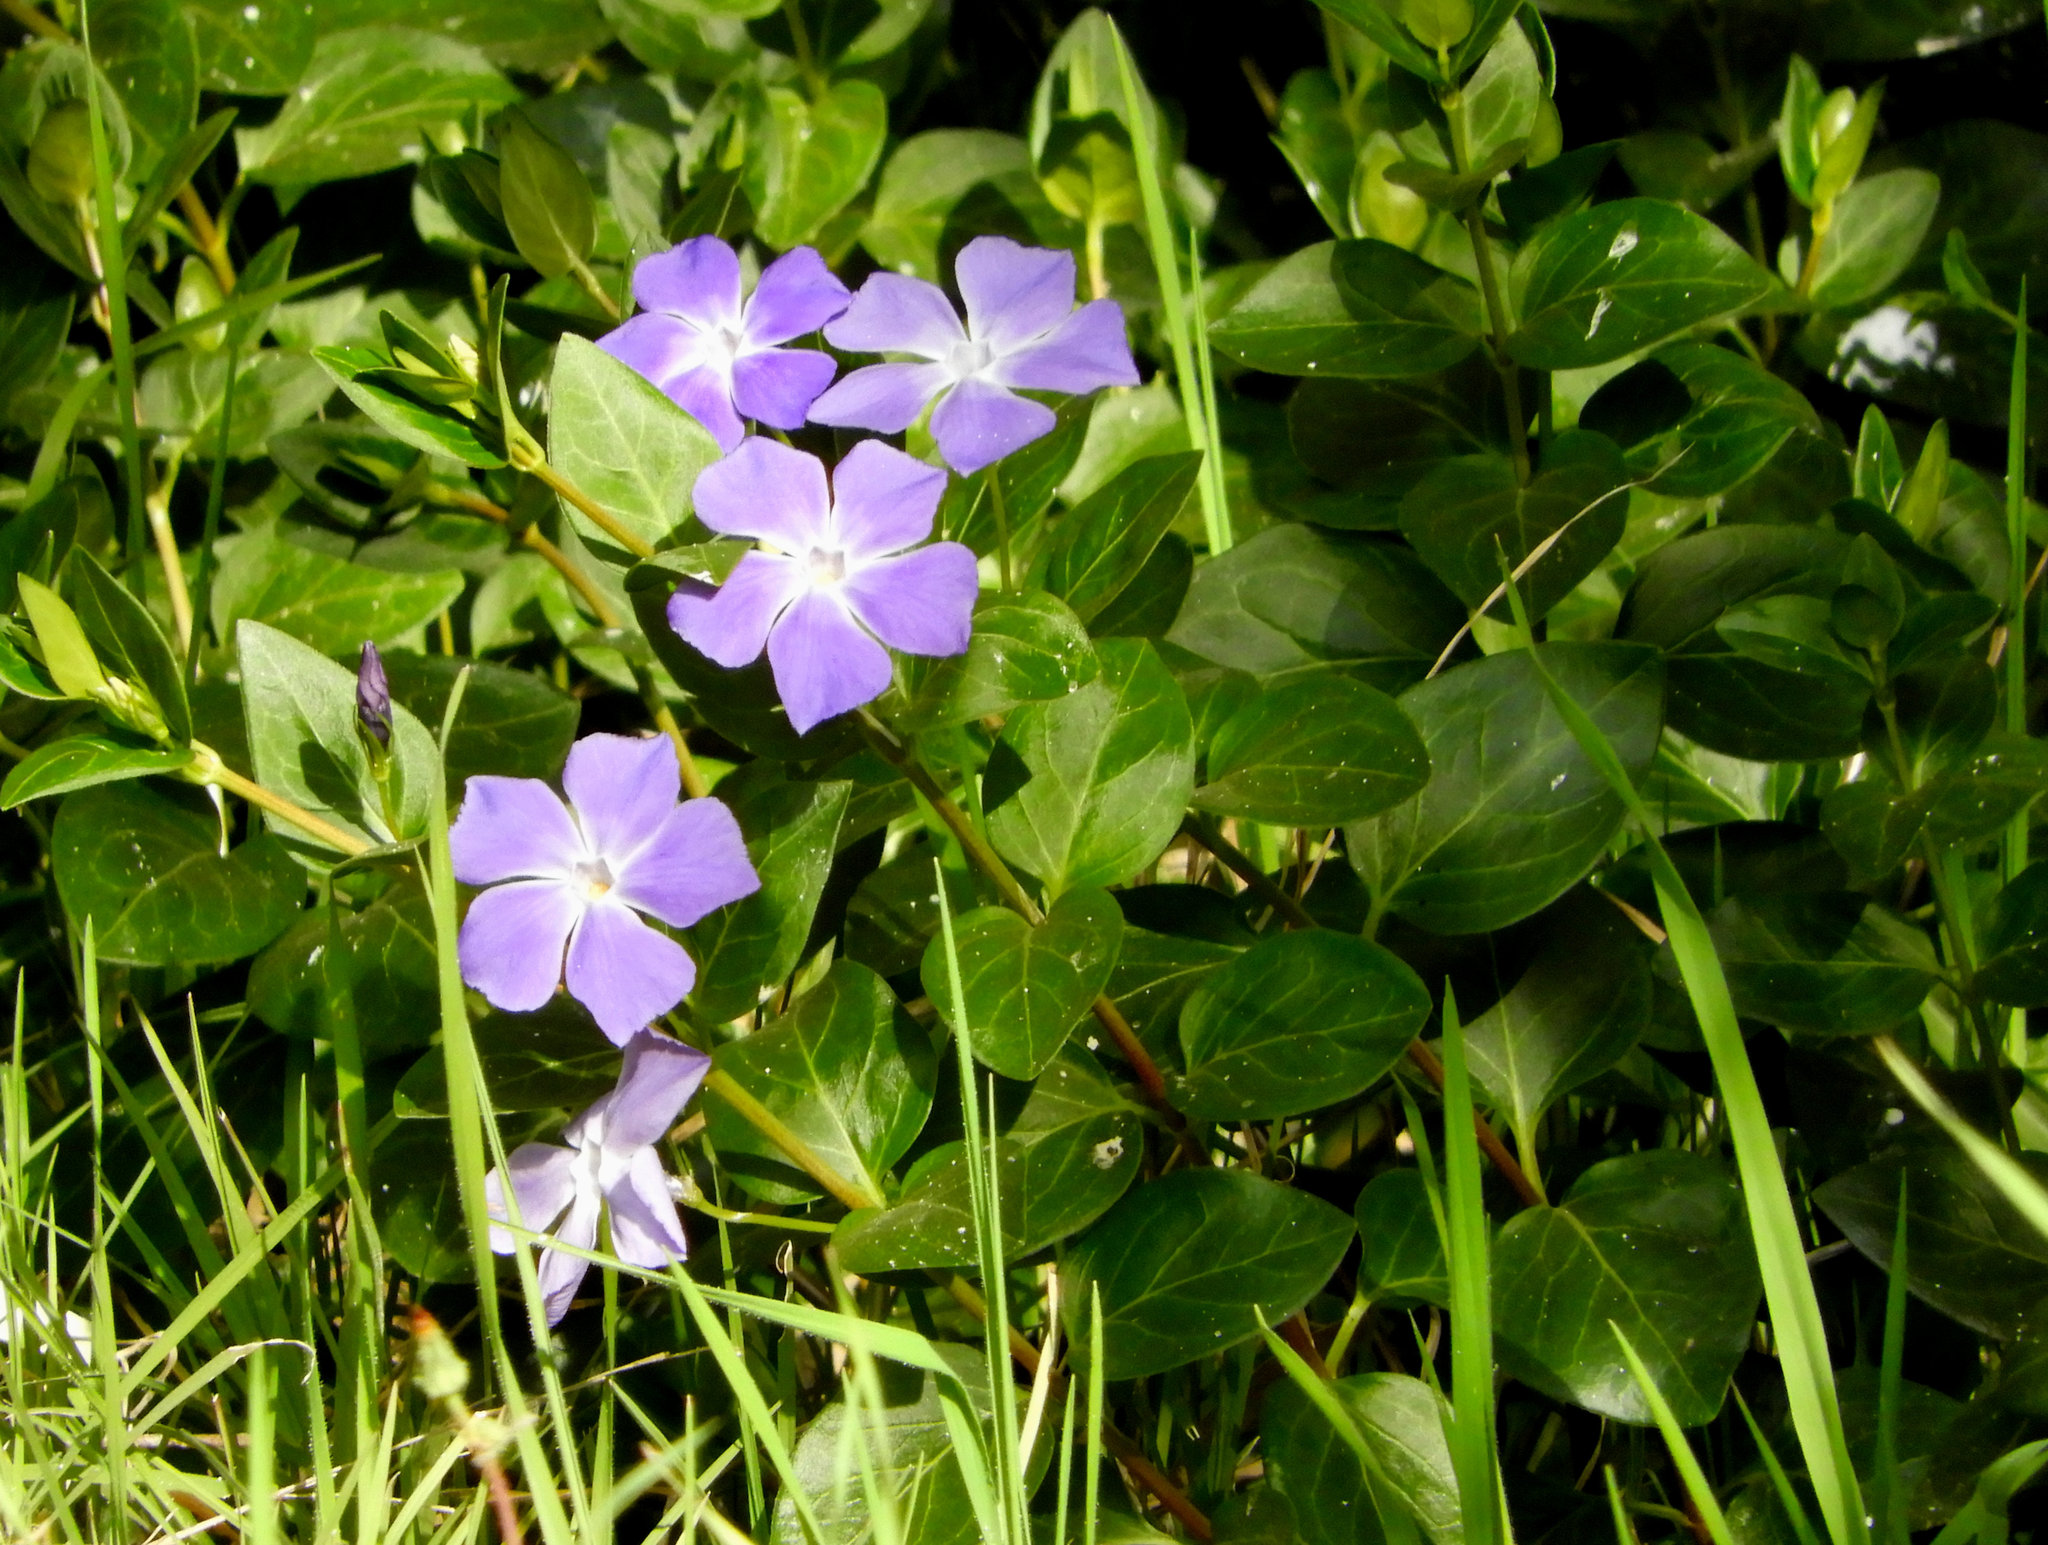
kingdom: Plantae
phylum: Tracheophyta
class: Magnoliopsida
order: Gentianales
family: Apocynaceae
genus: Vinca
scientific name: Vinca major
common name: Greater periwinkle
